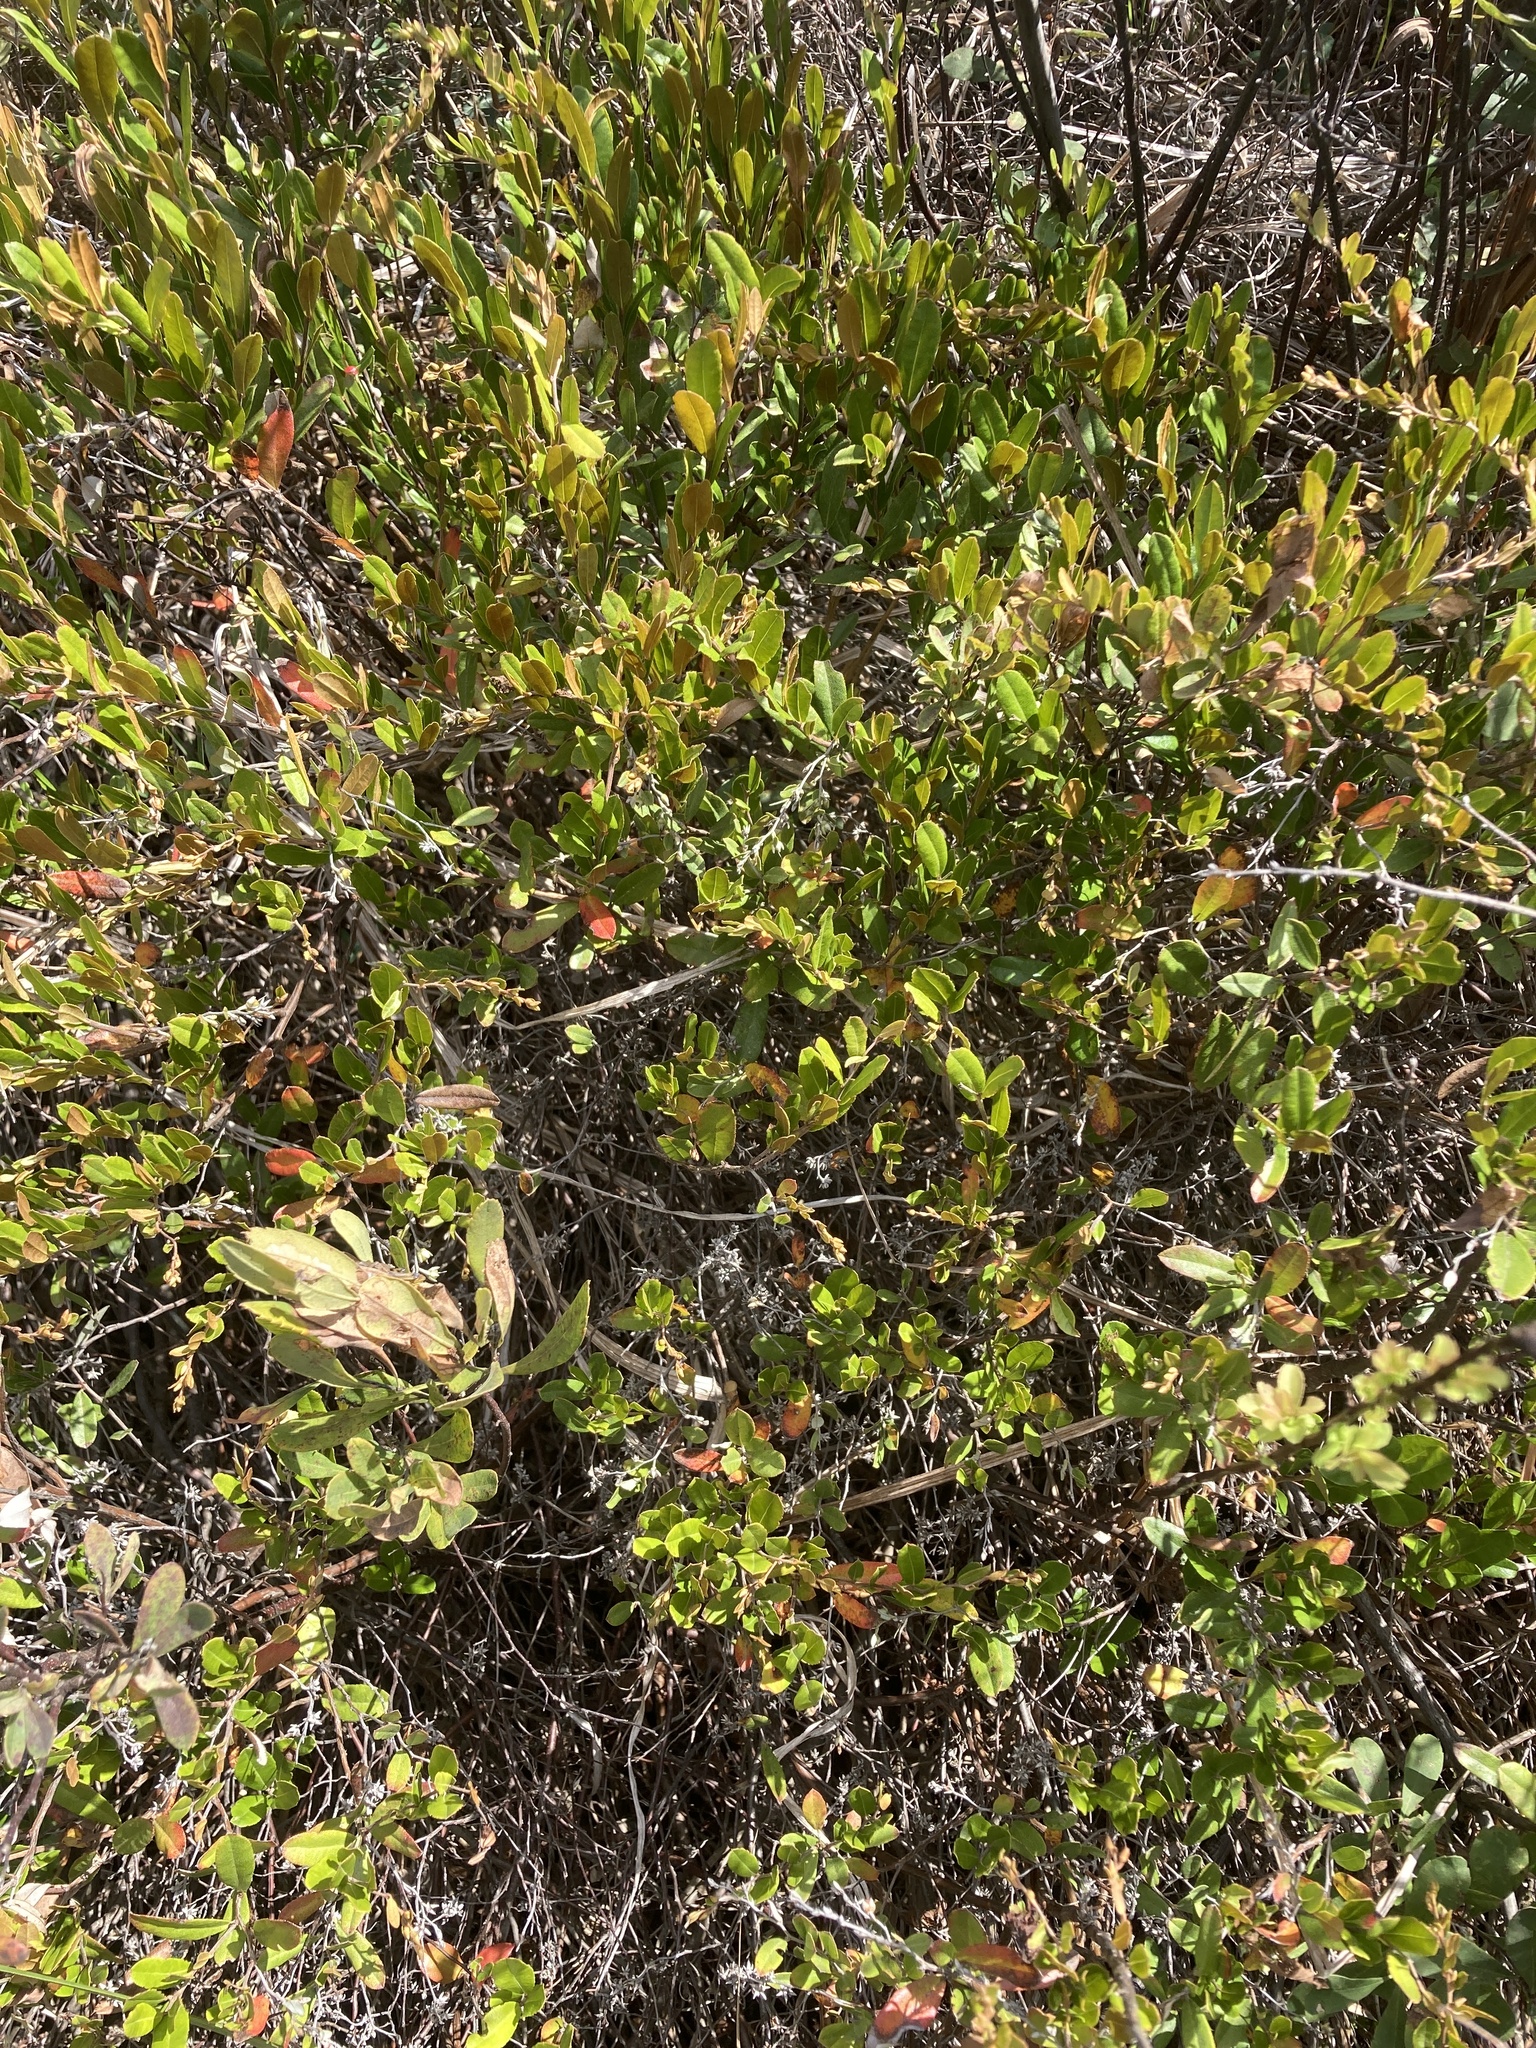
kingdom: Plantae
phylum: Tracheophyta
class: Magnoliopsida
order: Ericales
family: Ericaceae
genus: Chamaedaphne
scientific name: Chamaedaphne calyculata
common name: Leatherleaf
